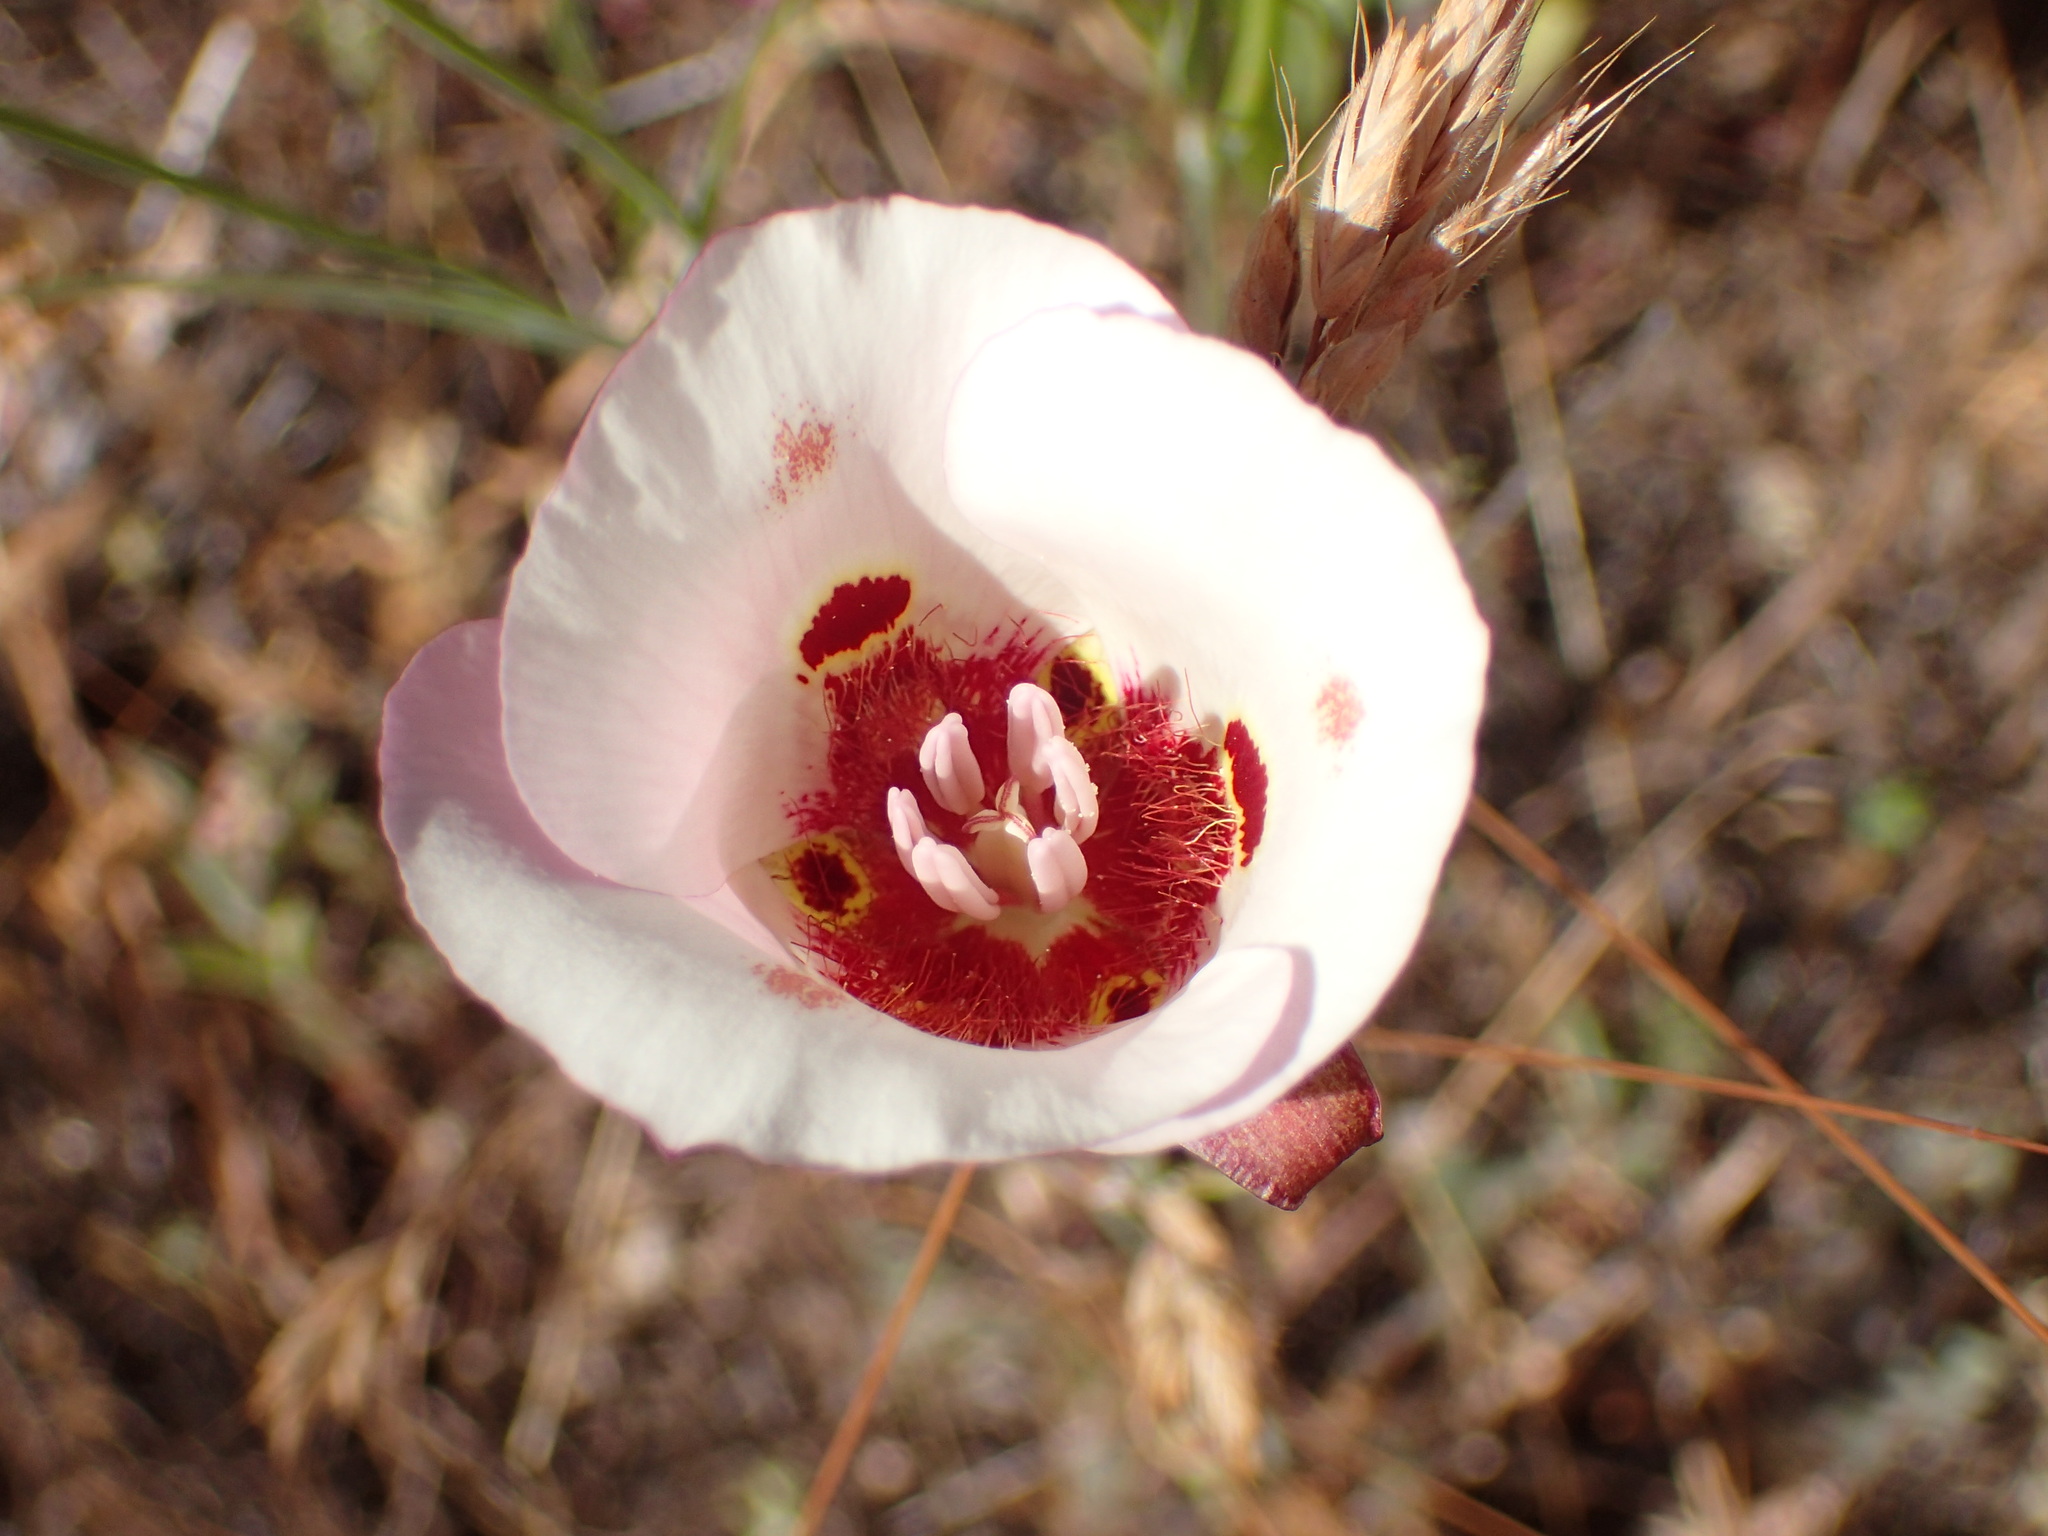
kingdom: Plantae
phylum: Tracheophyta
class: Liliopsida
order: Liliales
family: Liliaceae
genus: Calochortus
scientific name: Calochortus venustus
